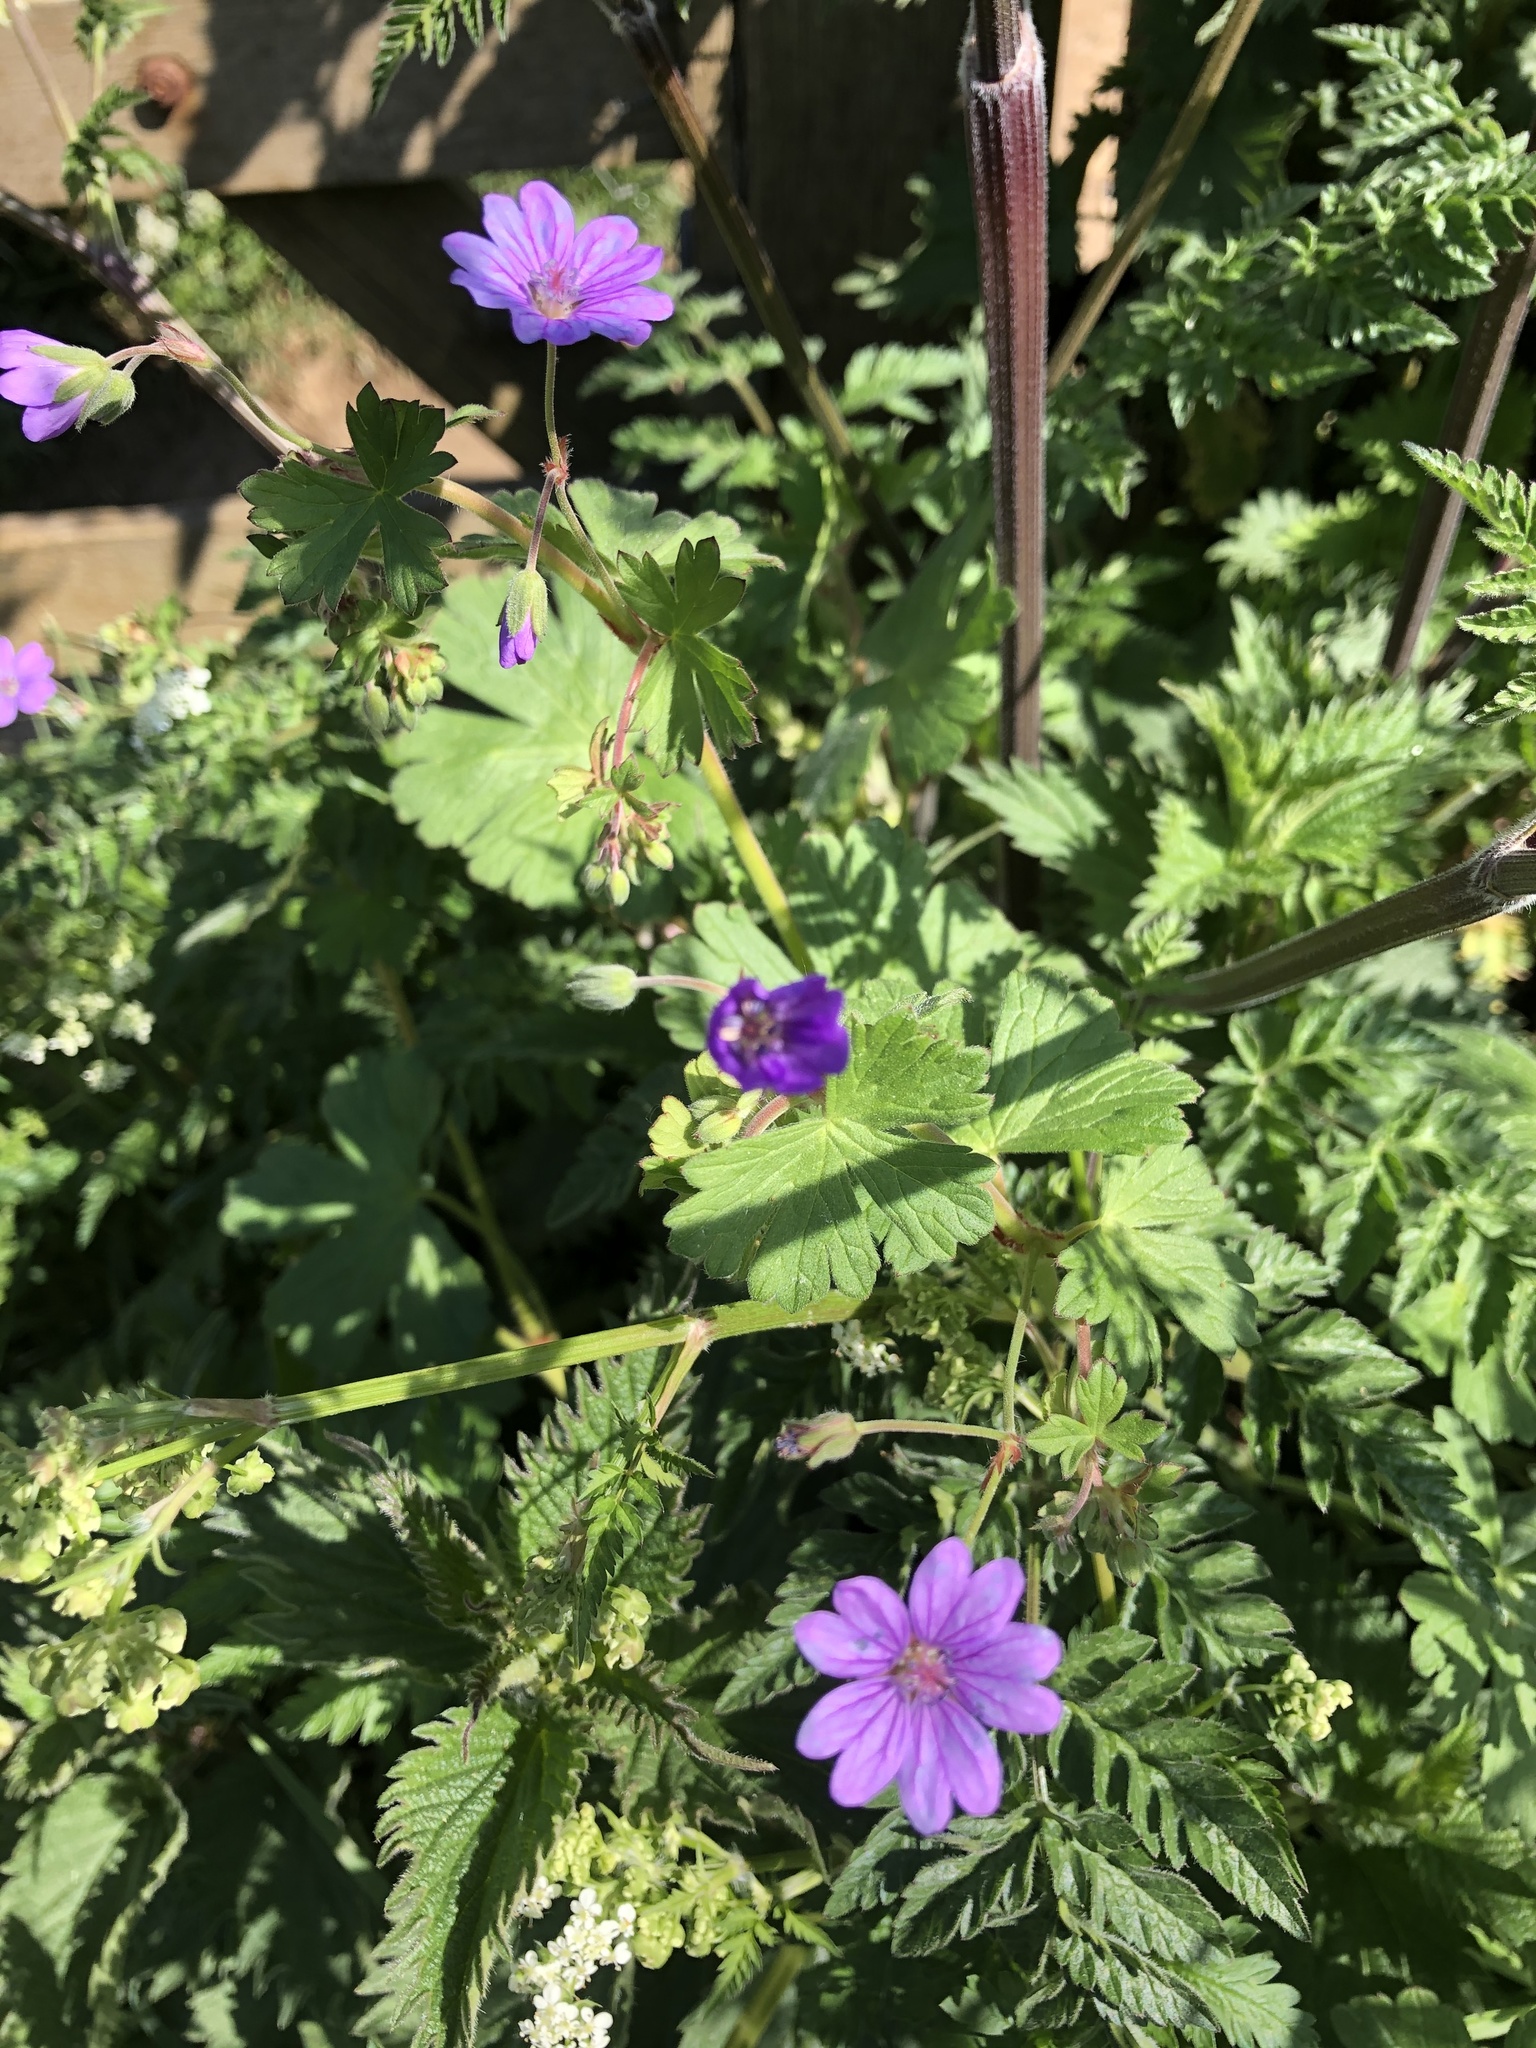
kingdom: Plantae
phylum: Tracheophyta
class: Magnoliopsida
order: Geraniales
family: Geraniaceae
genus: Geranium
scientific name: Geranium pyrenaicum
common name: Hedgerow crane's-bill
